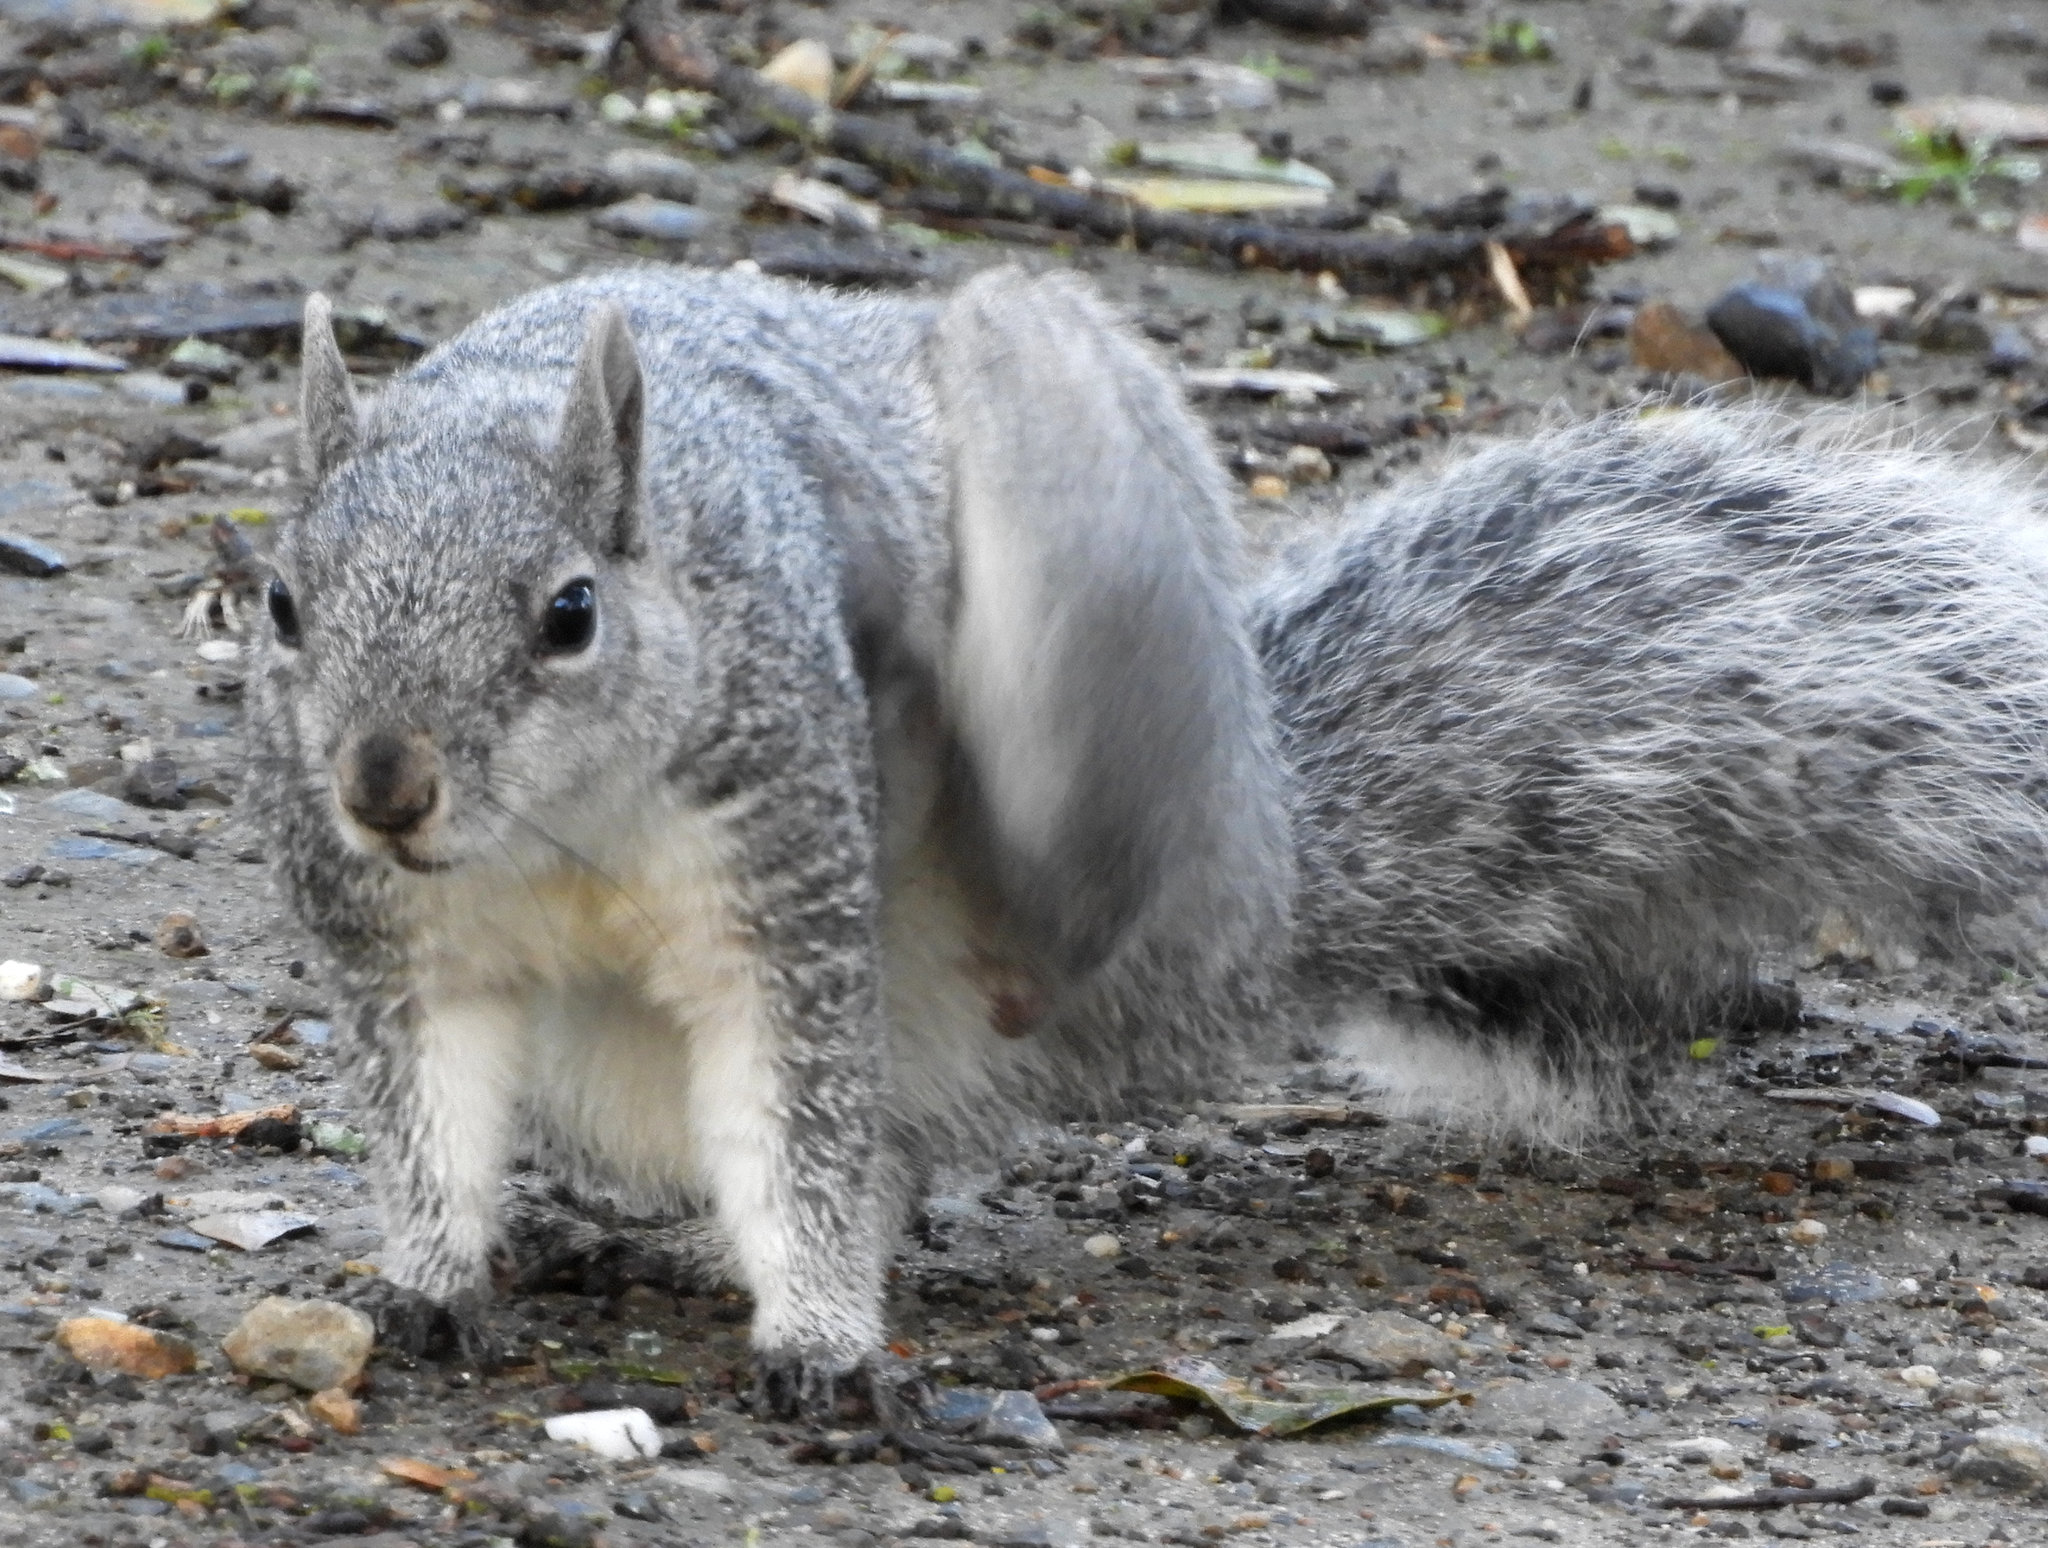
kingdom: Animalia
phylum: Chordata
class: Mammalia
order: Rodentia
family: Sciuridae
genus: Sciurus
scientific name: Sciurus griseus
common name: Western gray squirrel
